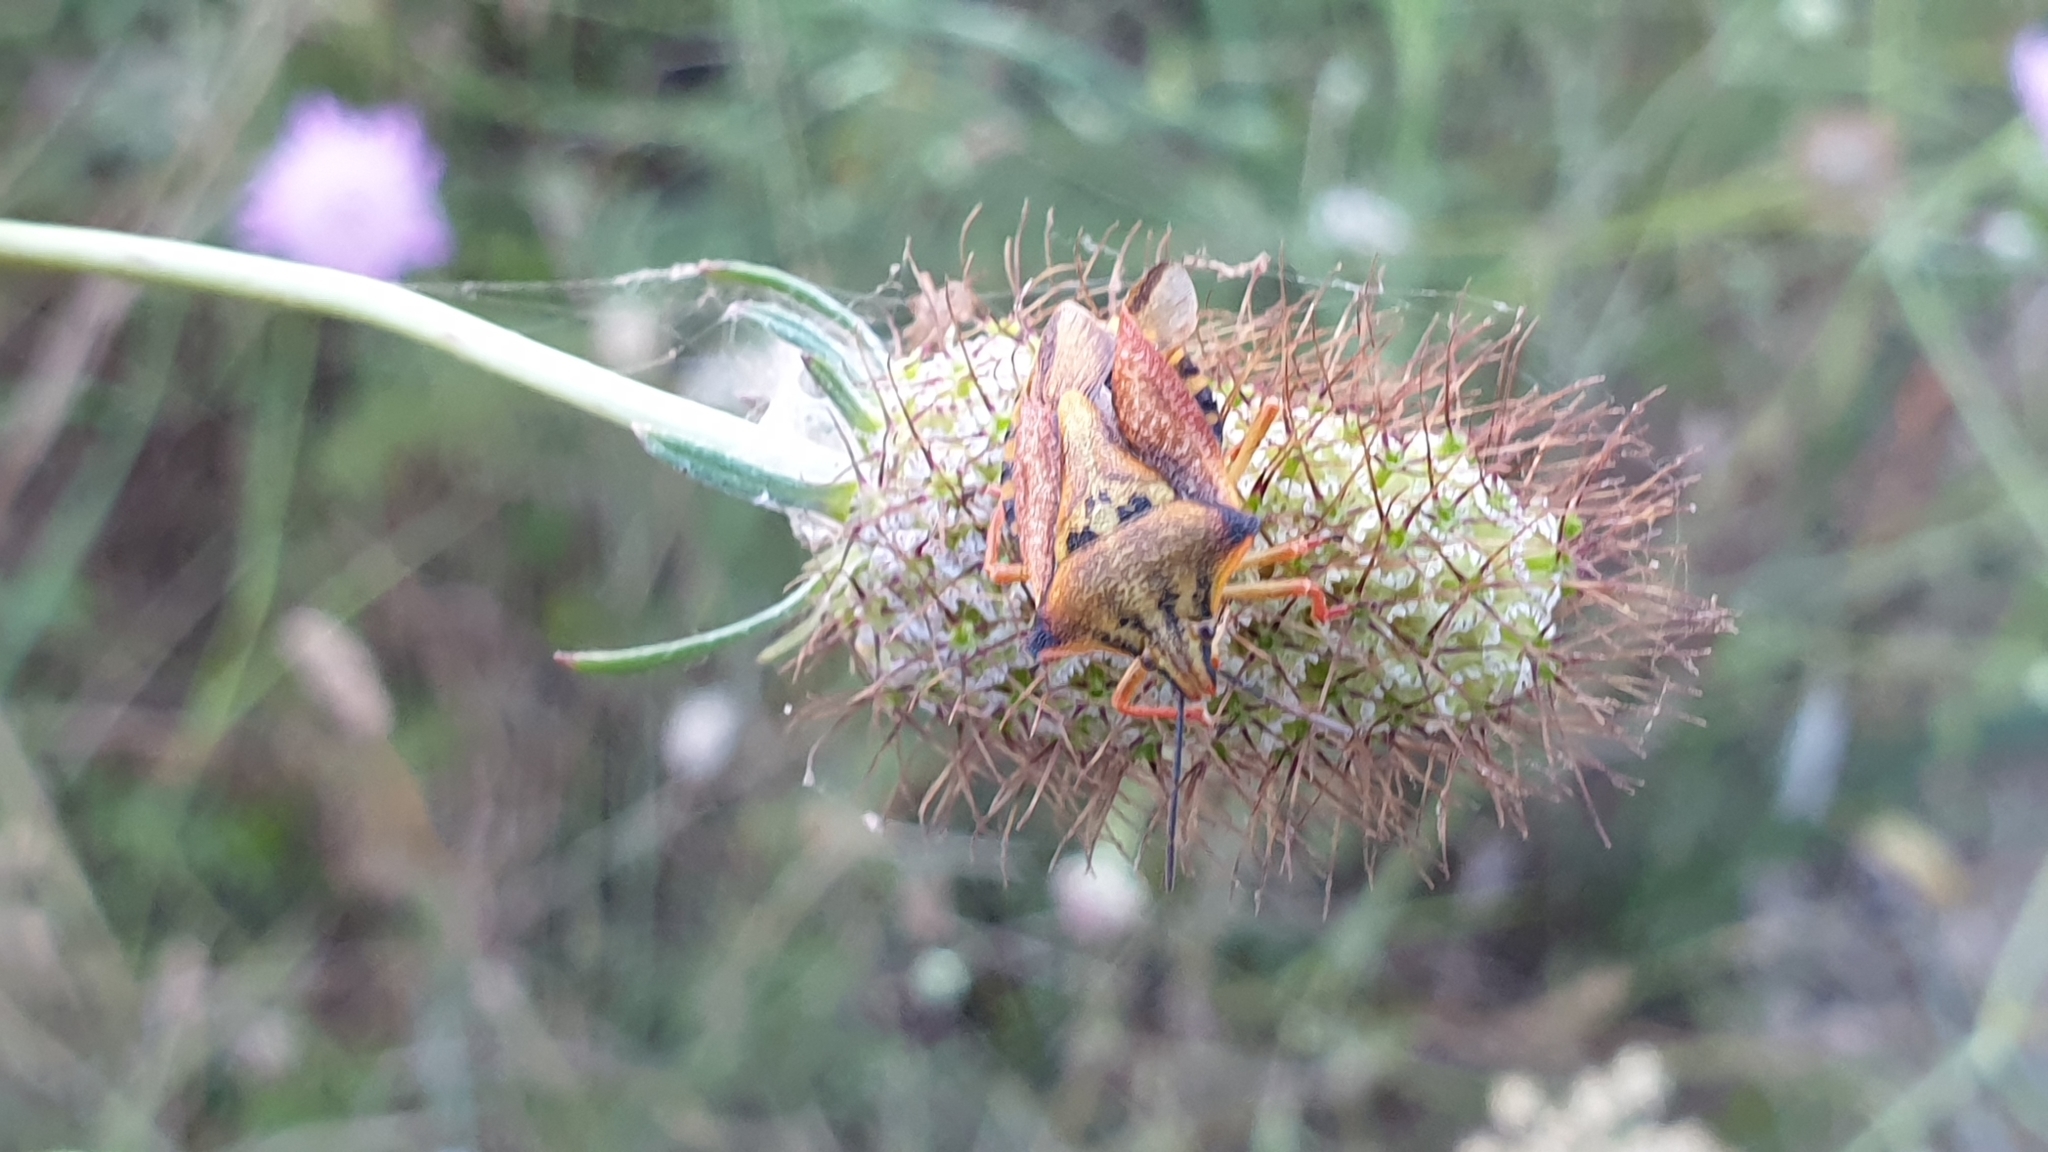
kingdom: Animalia
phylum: Arthropoda
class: Insecta
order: Hemiptera
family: Pentatomidae
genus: Carpocoris
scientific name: Carpocoris mediterraneus
